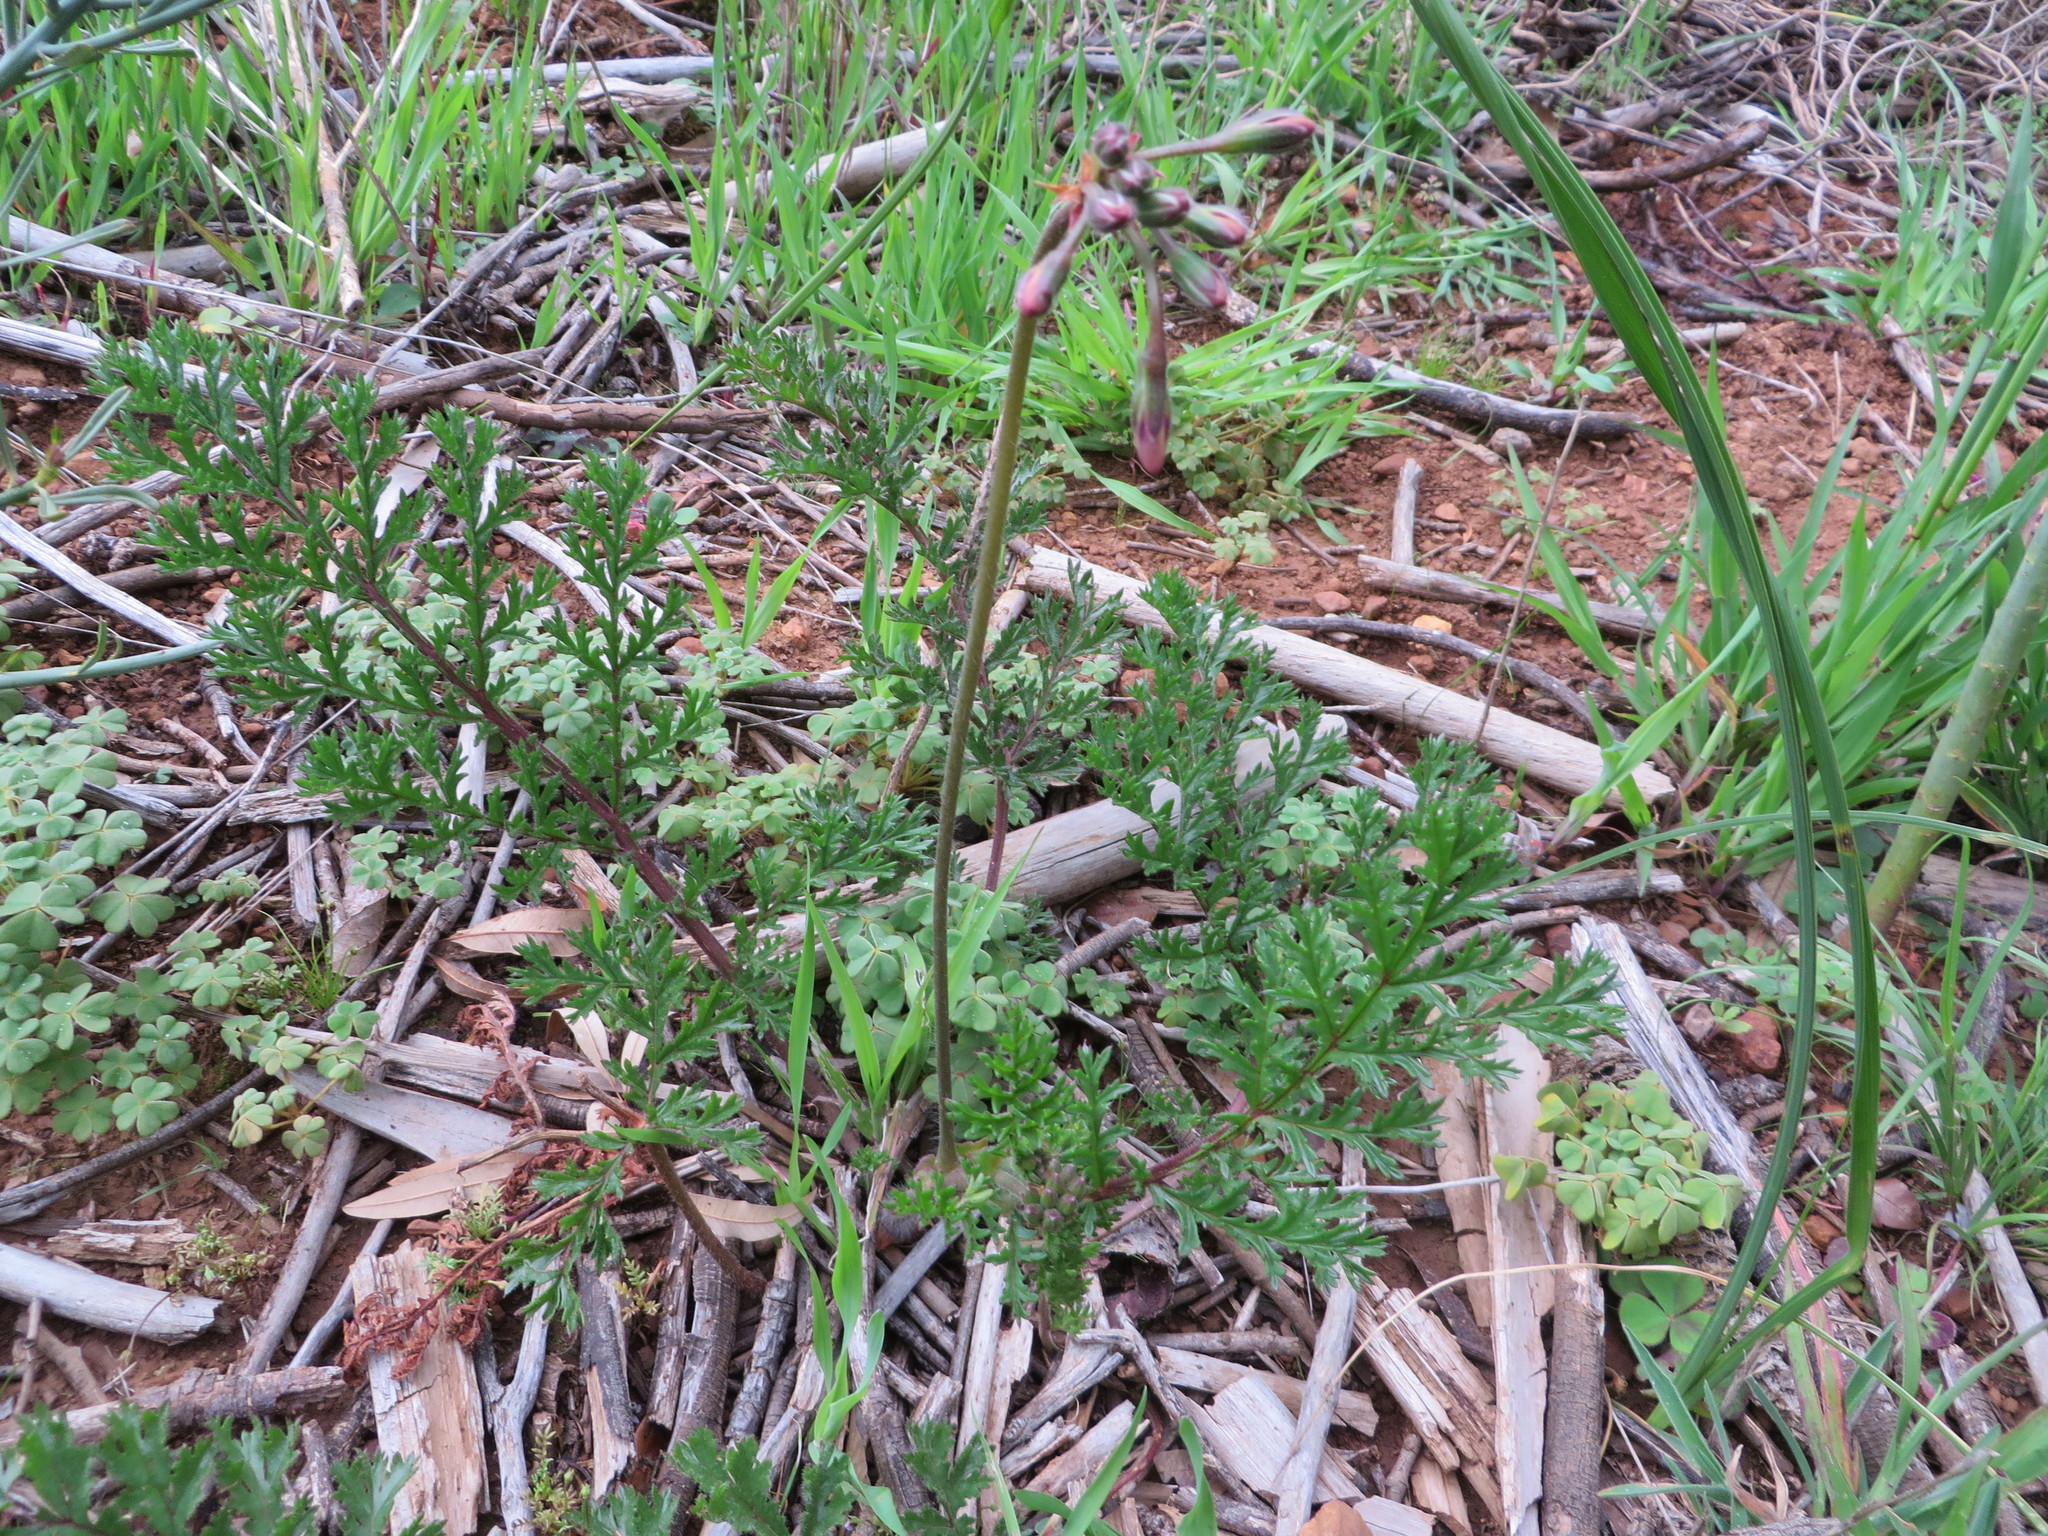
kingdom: Plantae
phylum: Tracheophyta
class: Magnoliopsida
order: Geraniales
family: Geraniaceae
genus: Pelargonium
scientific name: Pelargonium triste
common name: Night-scent pelargonium
